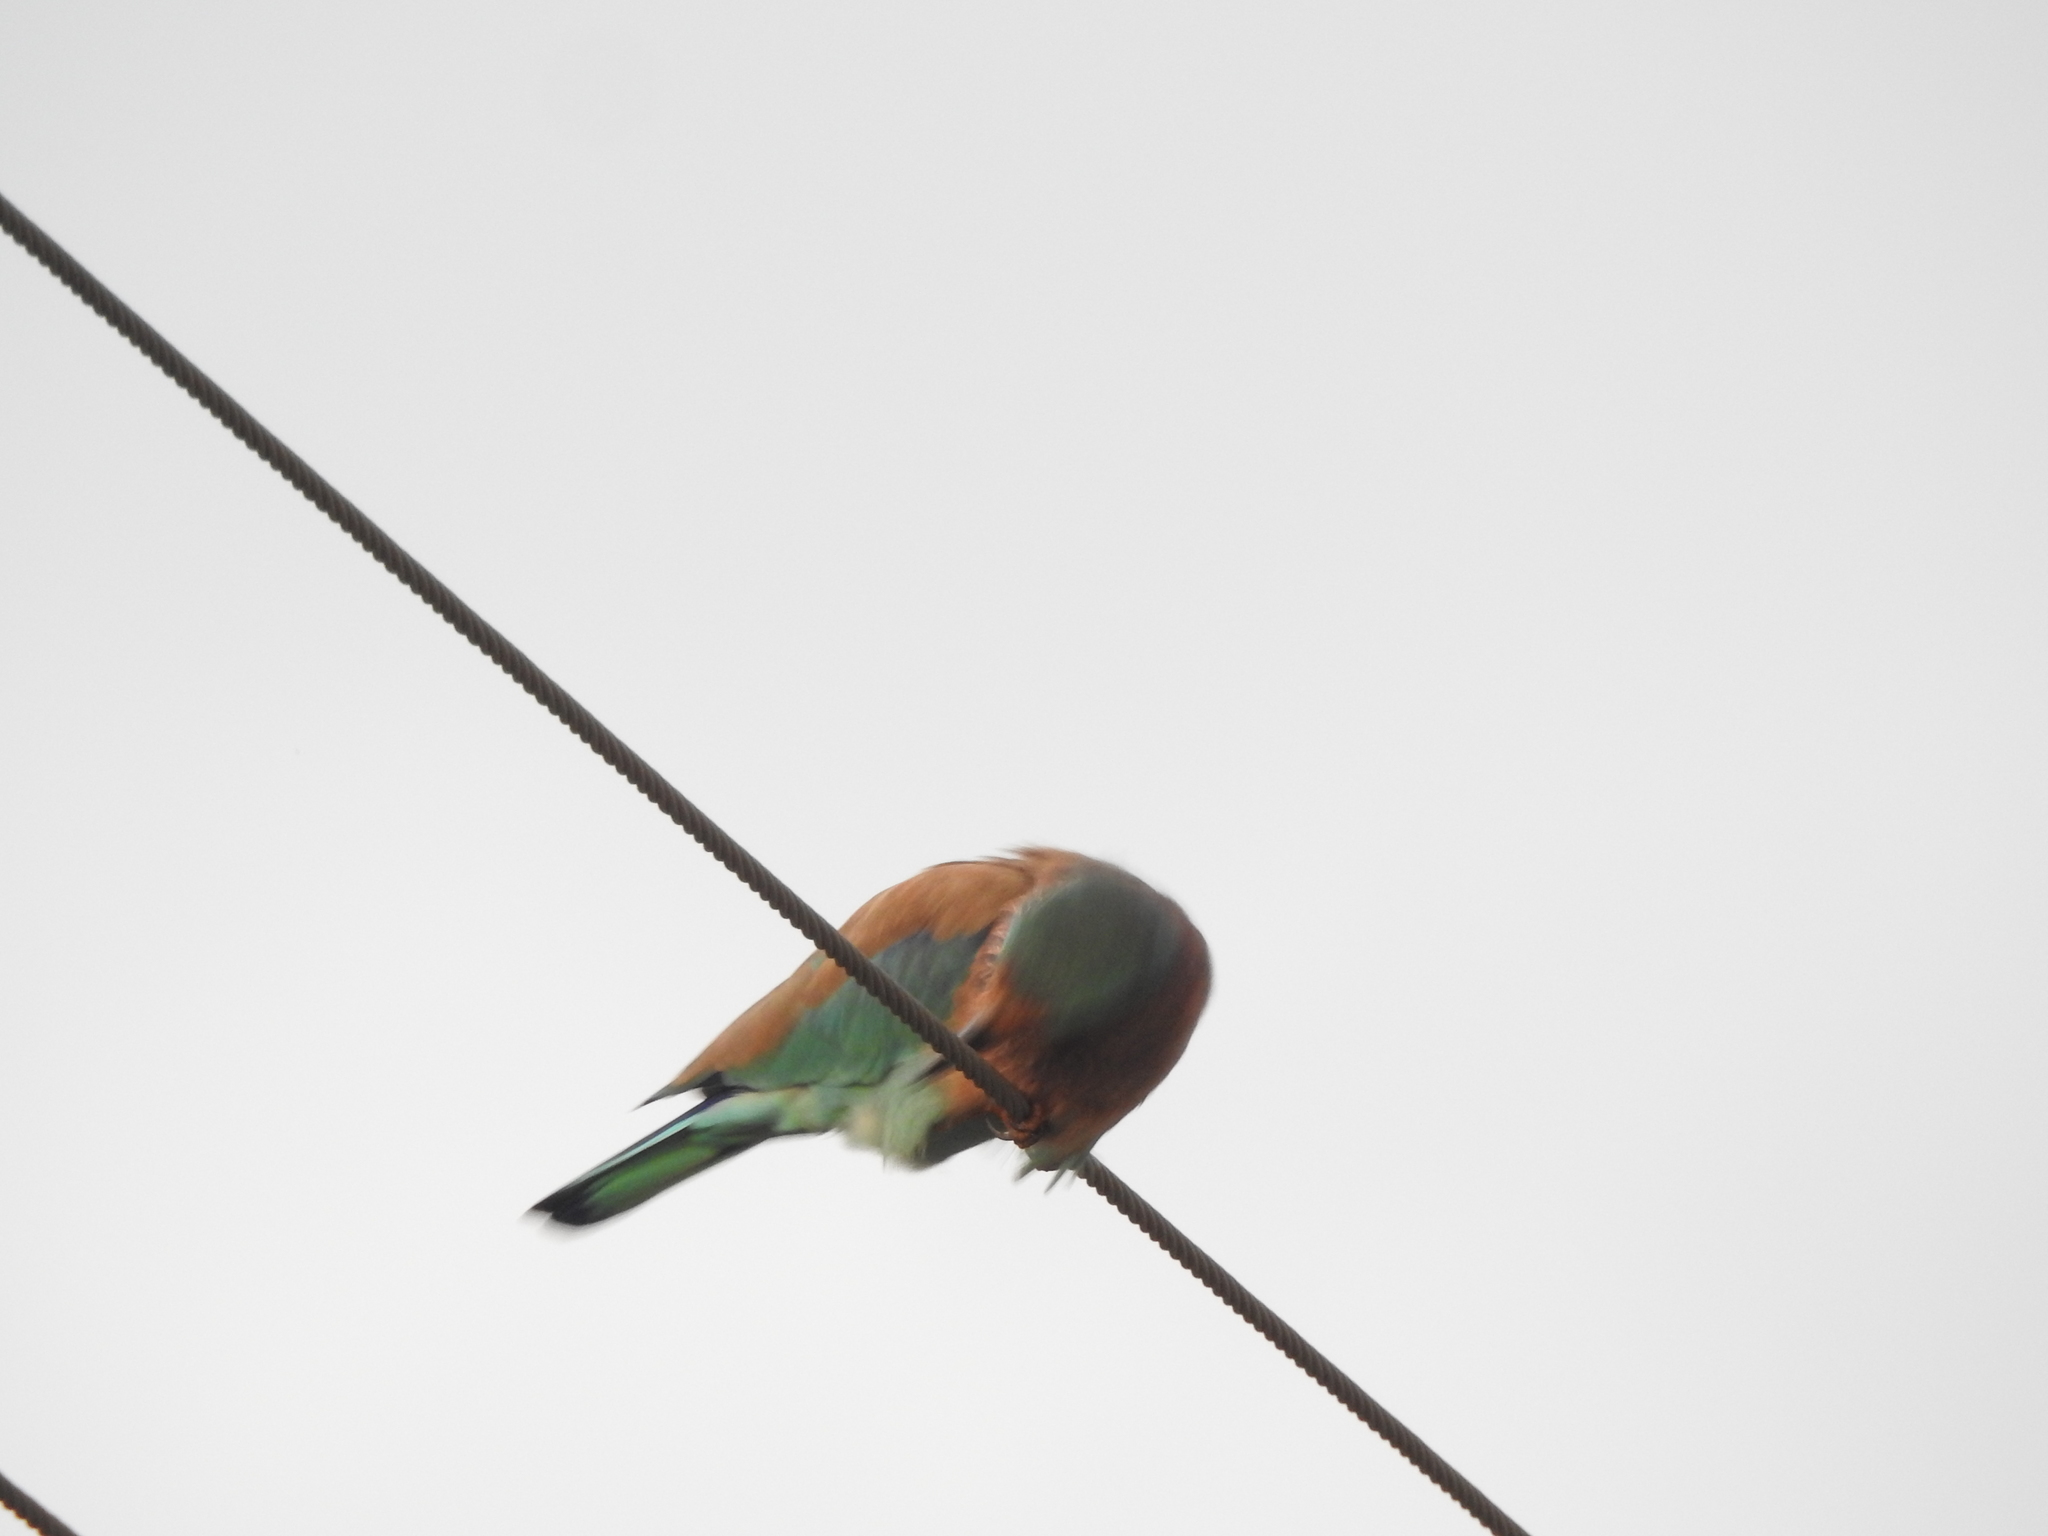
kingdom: Animalia
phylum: Chordata
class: Aves
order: Coraciiformes
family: Coraciidae
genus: Coracias
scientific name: Coracias benghalensis
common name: Indian roller
